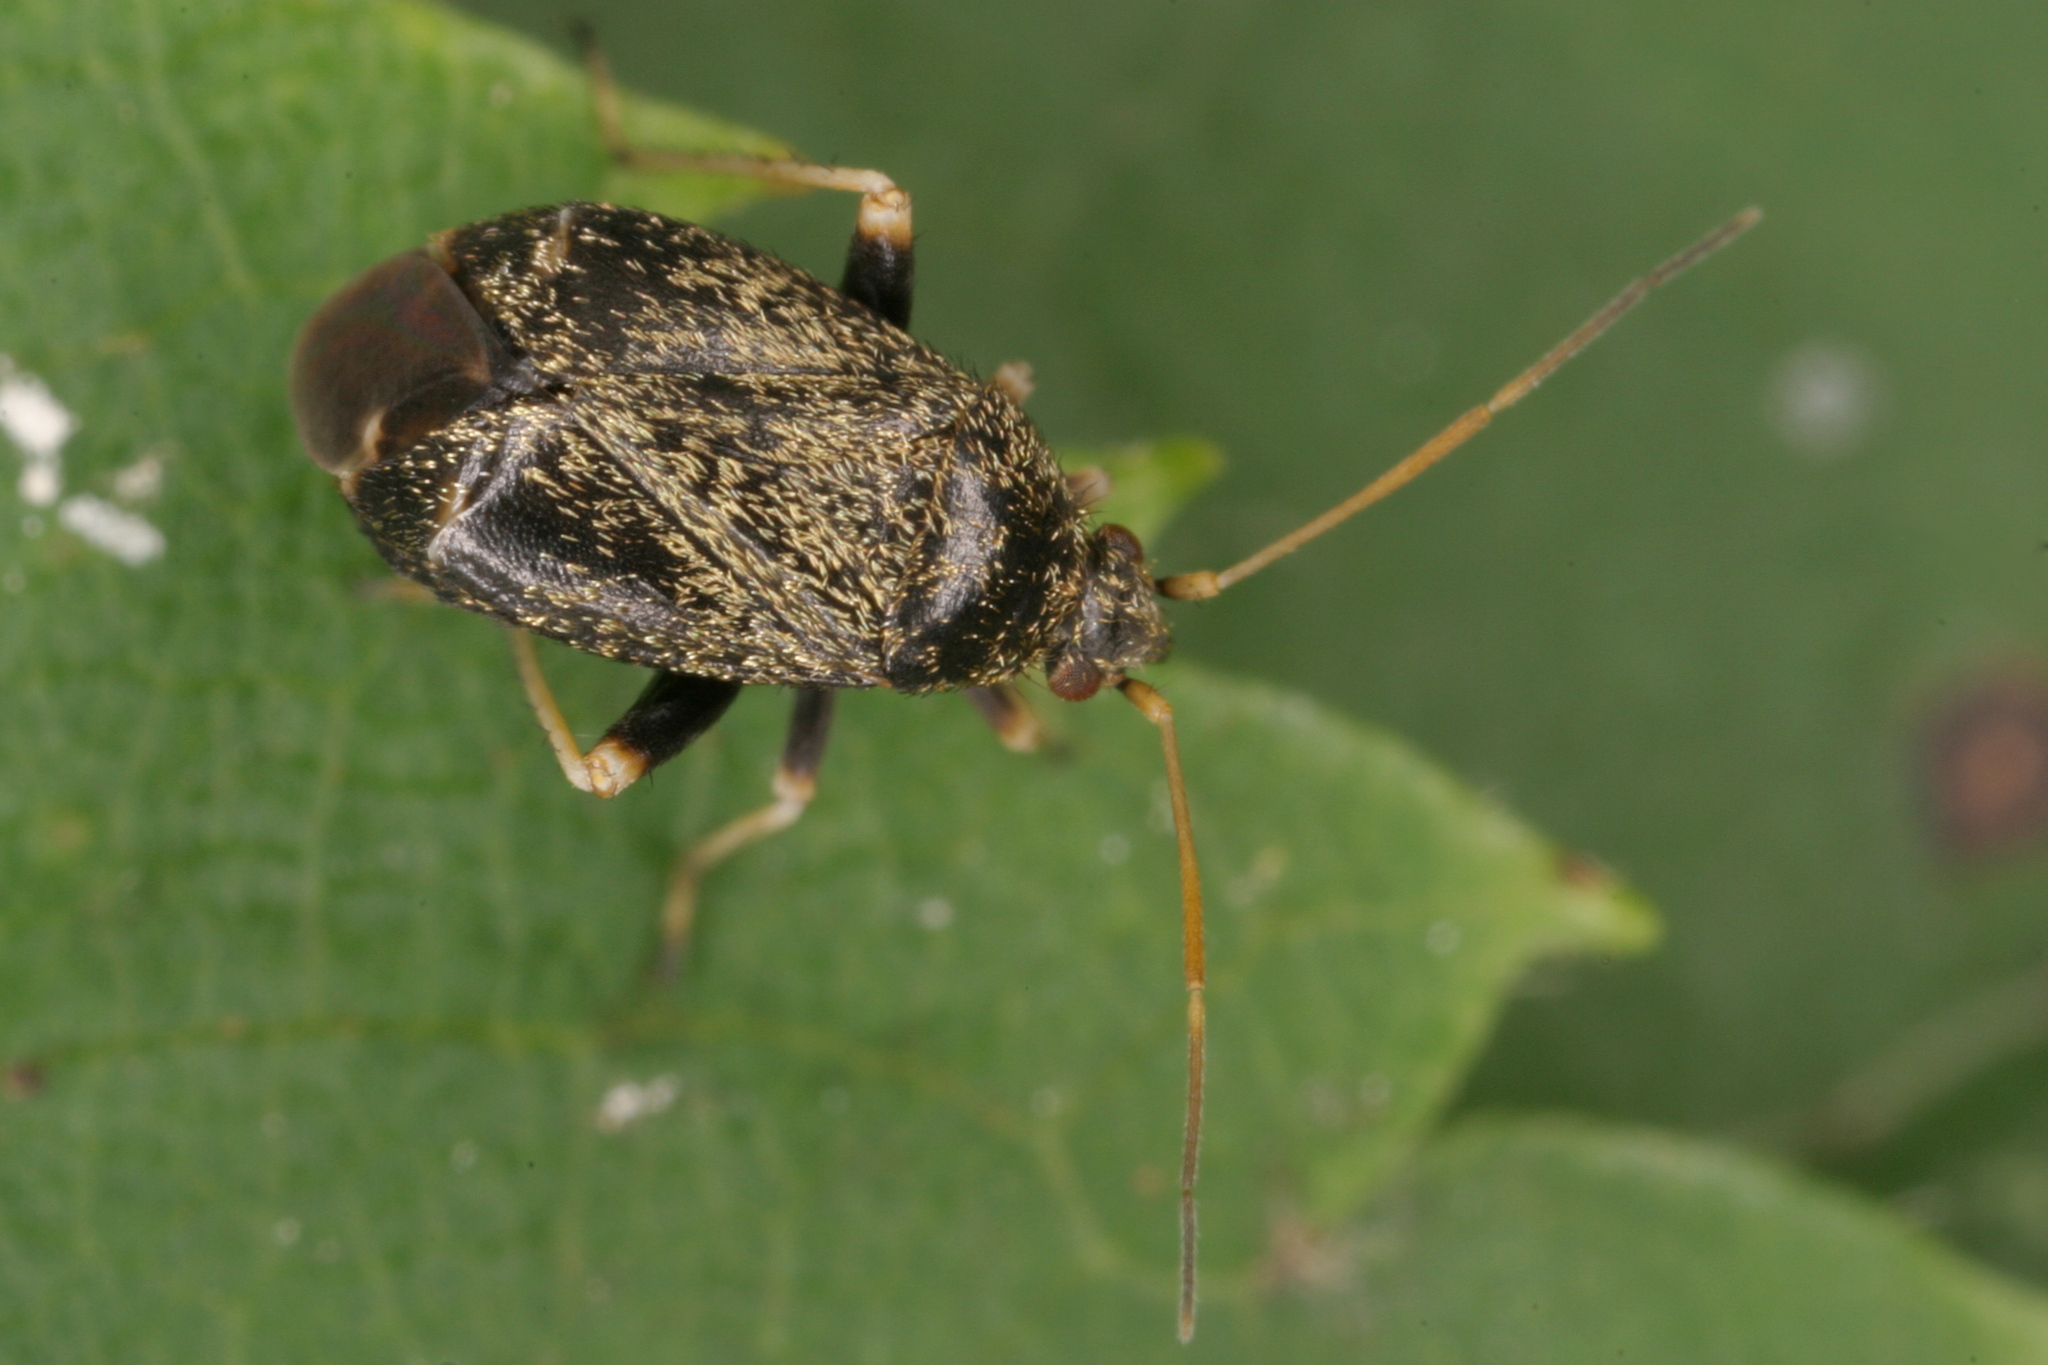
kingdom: Animalia
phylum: Arthropoda
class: Insecta
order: Hemiptera
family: Miridae
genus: Criocoris
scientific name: Criocoris crassicornis
